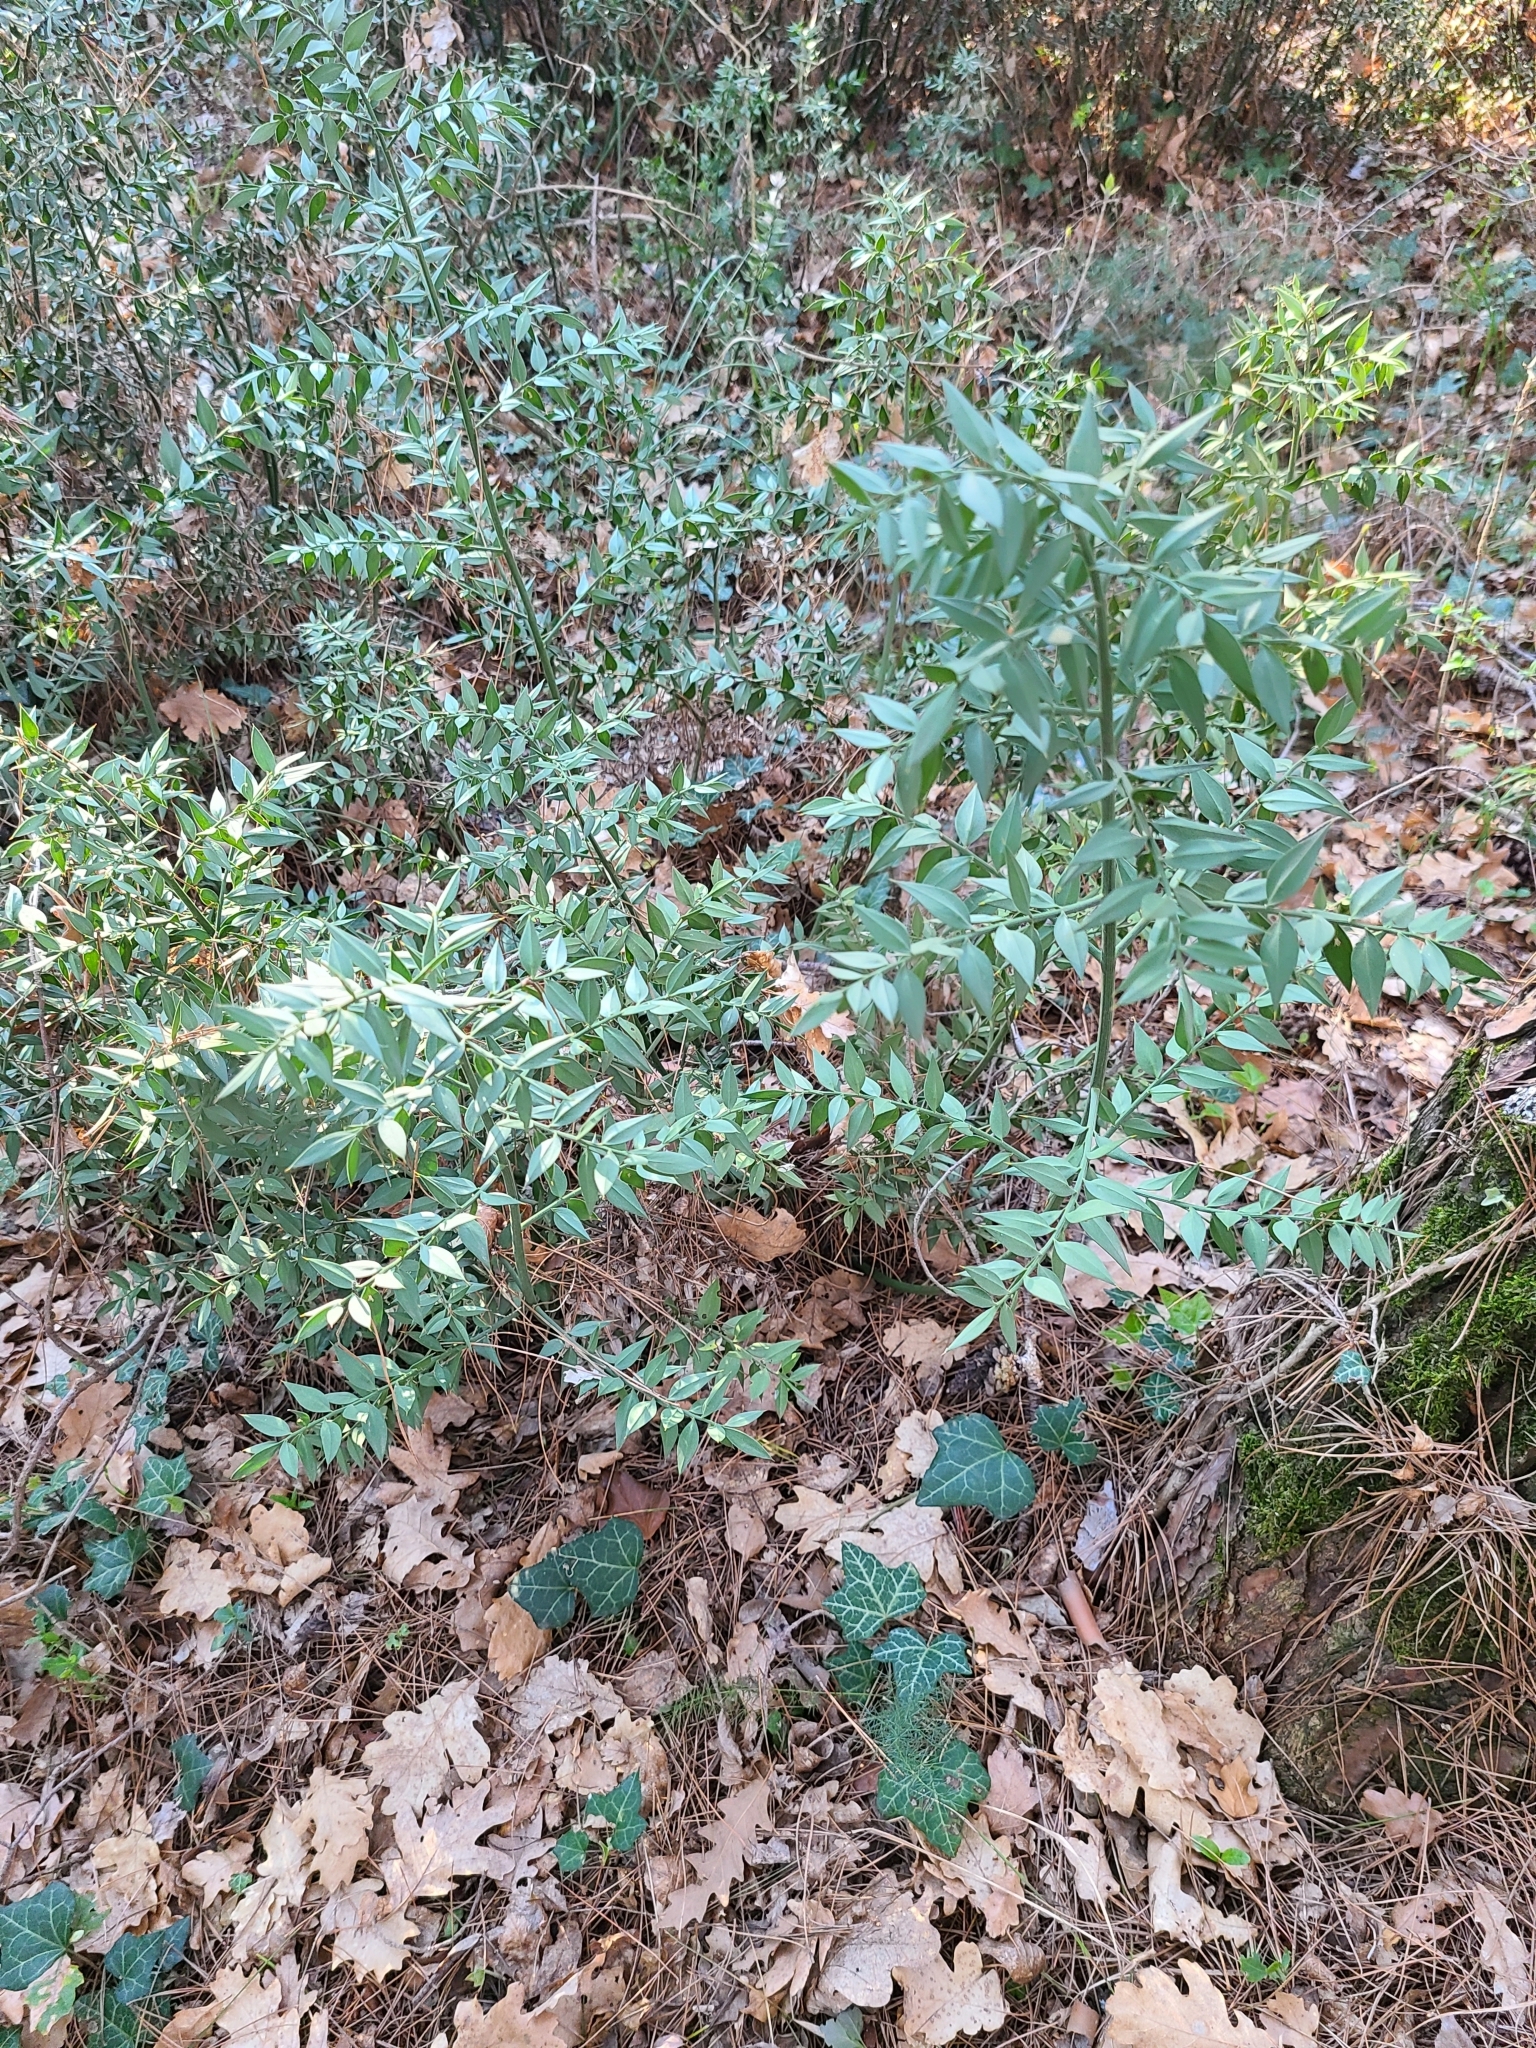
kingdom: Plantae
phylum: Tracheophyta
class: Liliopsida
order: Asparagales
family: Asparagaceae
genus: Ruscus
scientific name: Ruscus aculeatus
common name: Butcher's-broom
